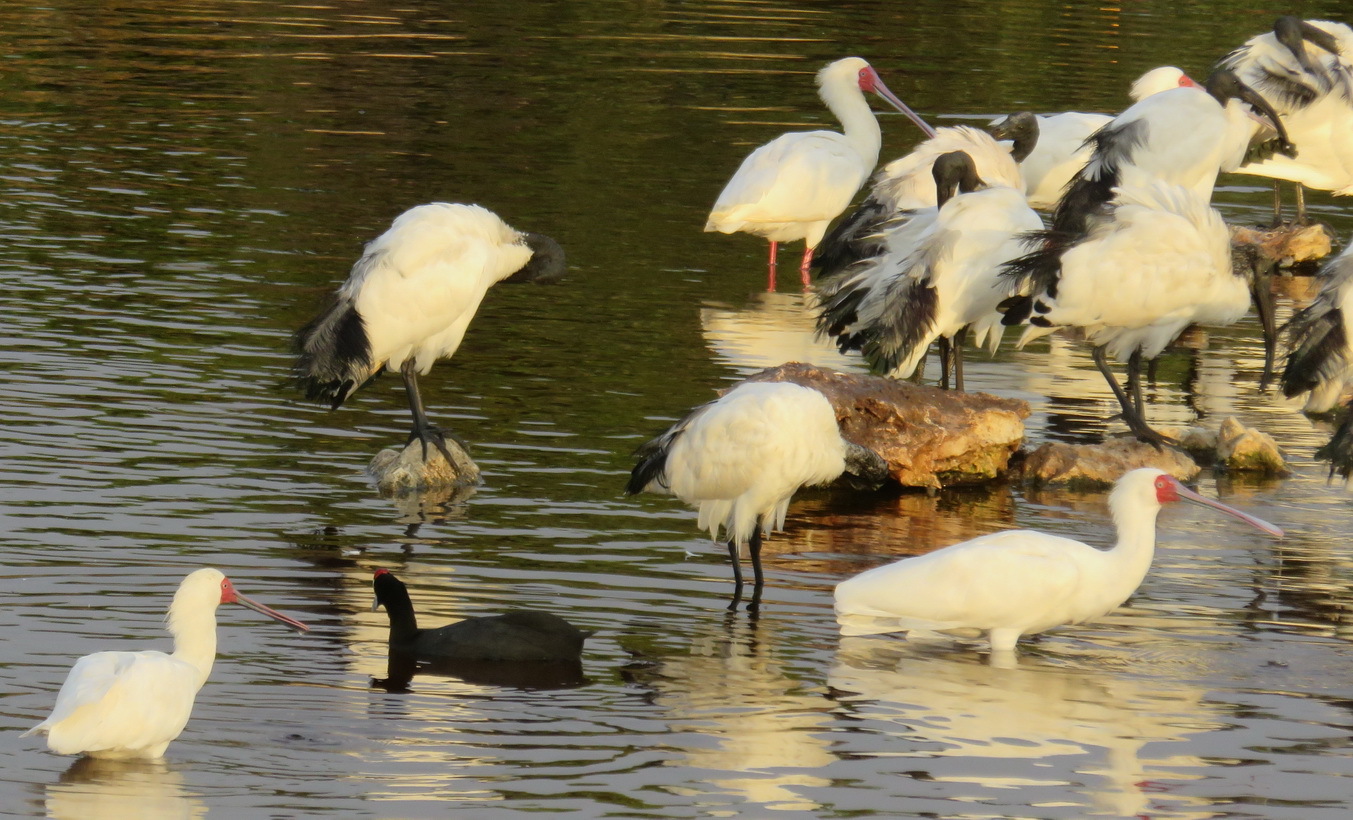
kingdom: Animalia
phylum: Chordata
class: Aves
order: Pelecaniformes
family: Threskiornithidae
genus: Platalea
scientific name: Platalea alba
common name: African spoonbill
